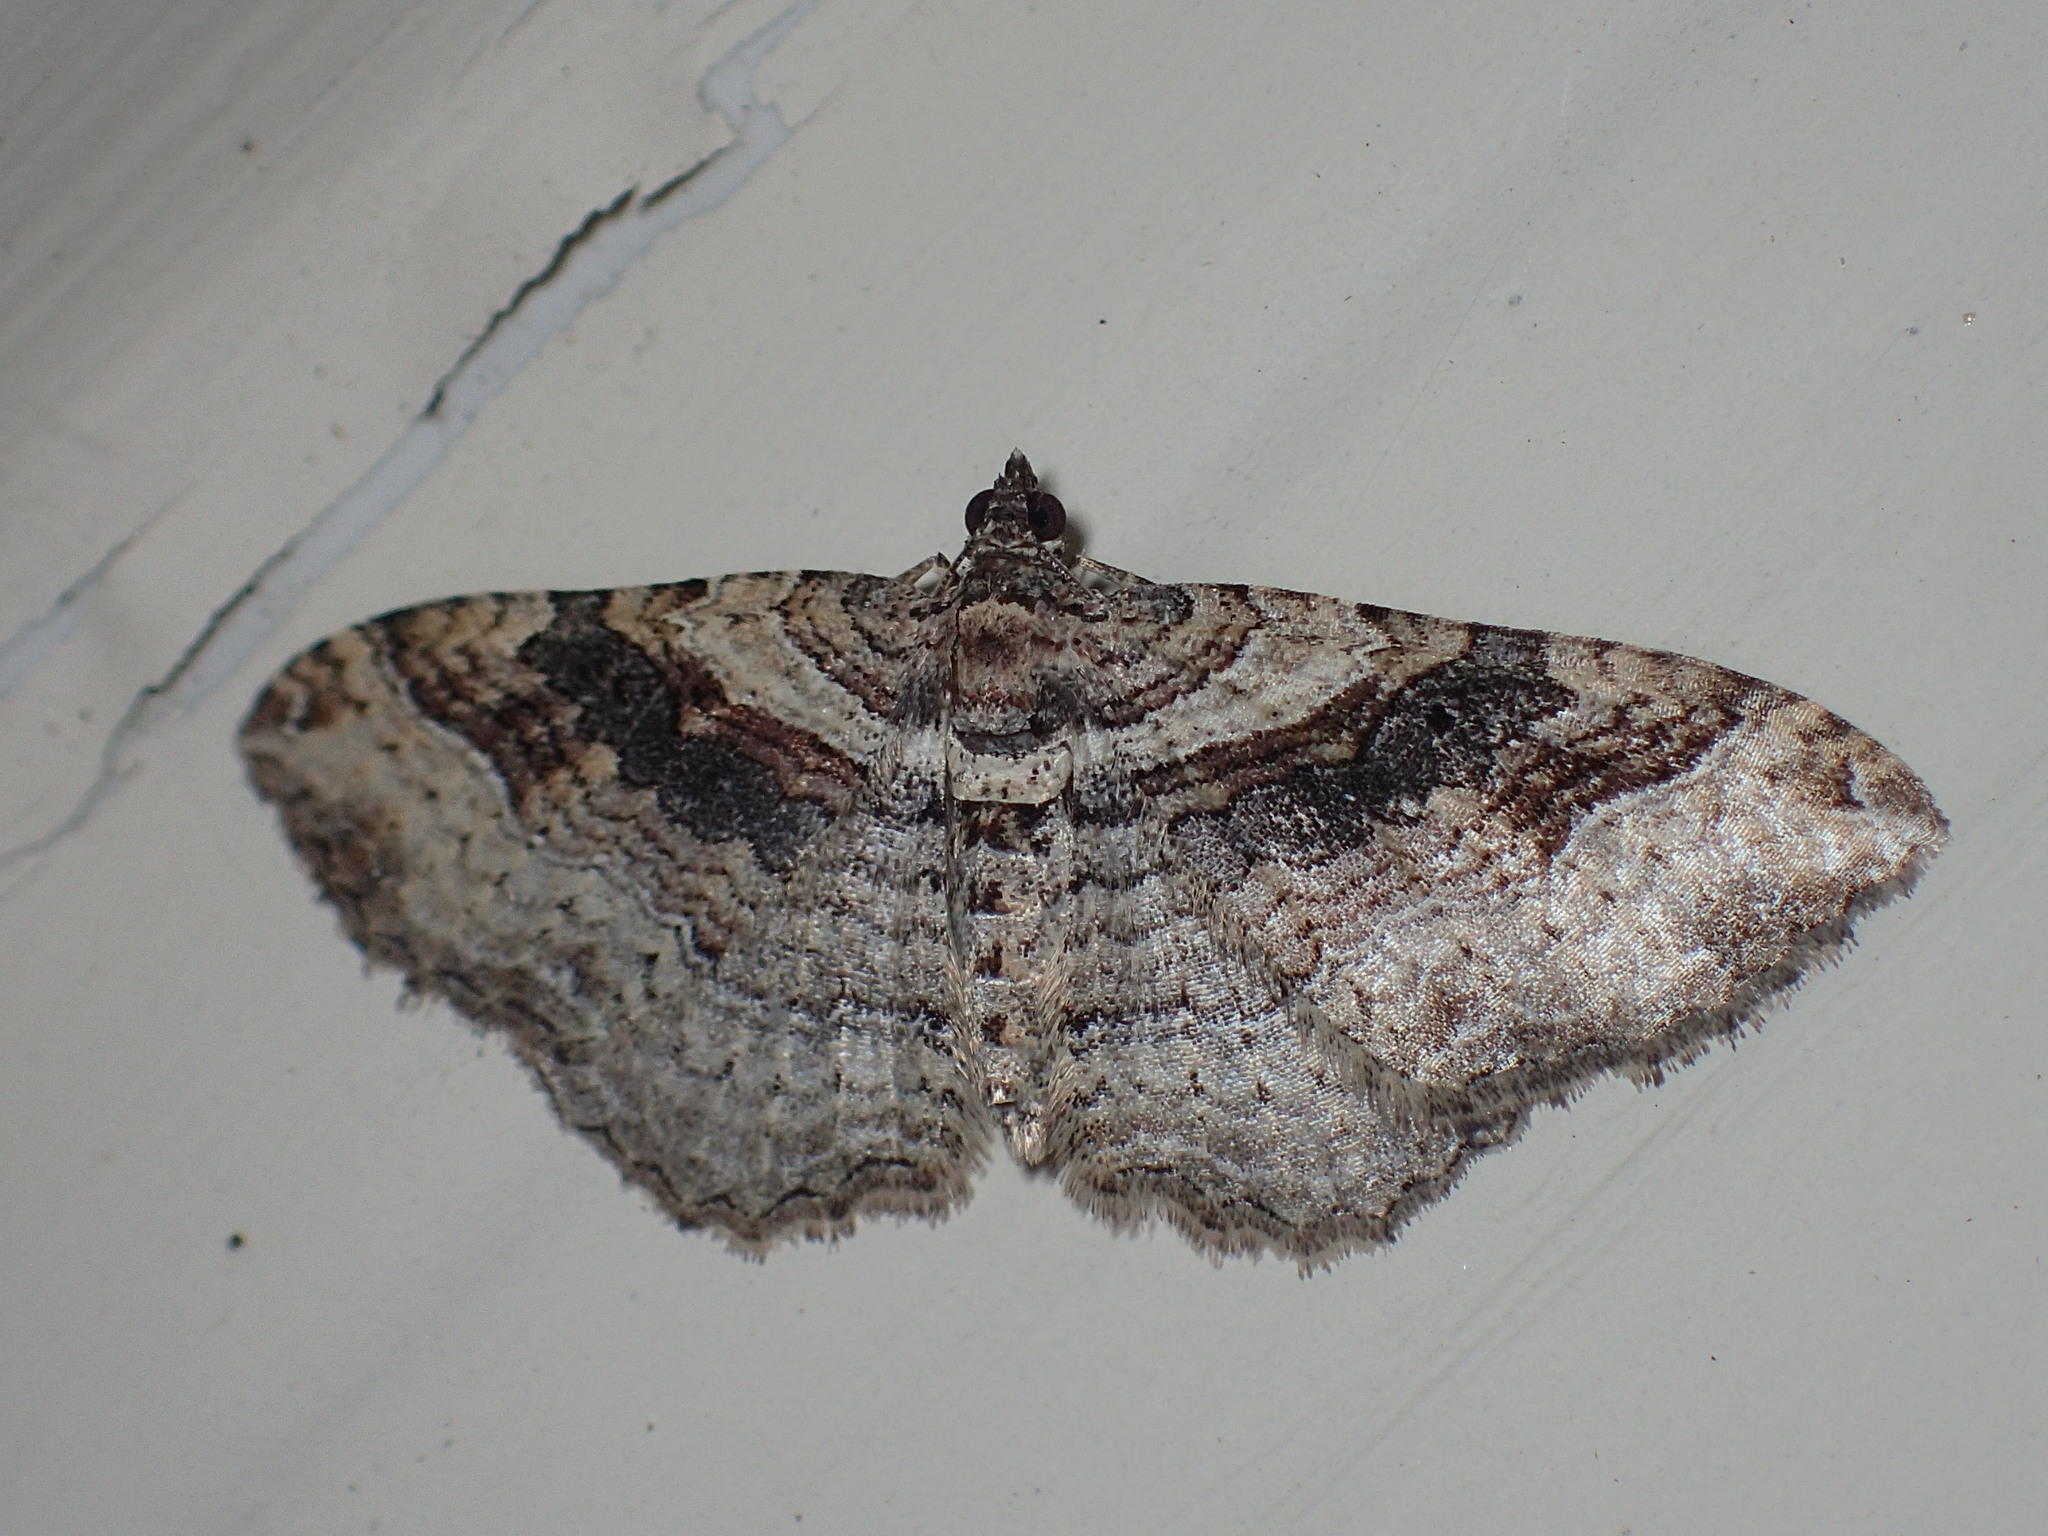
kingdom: Animalia
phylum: Arthropoda
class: Insecta
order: Lepidoptera
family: Geometridae
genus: Costaconvexa
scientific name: Costaconvexa centrostrigaria
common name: Bent-line carpet
